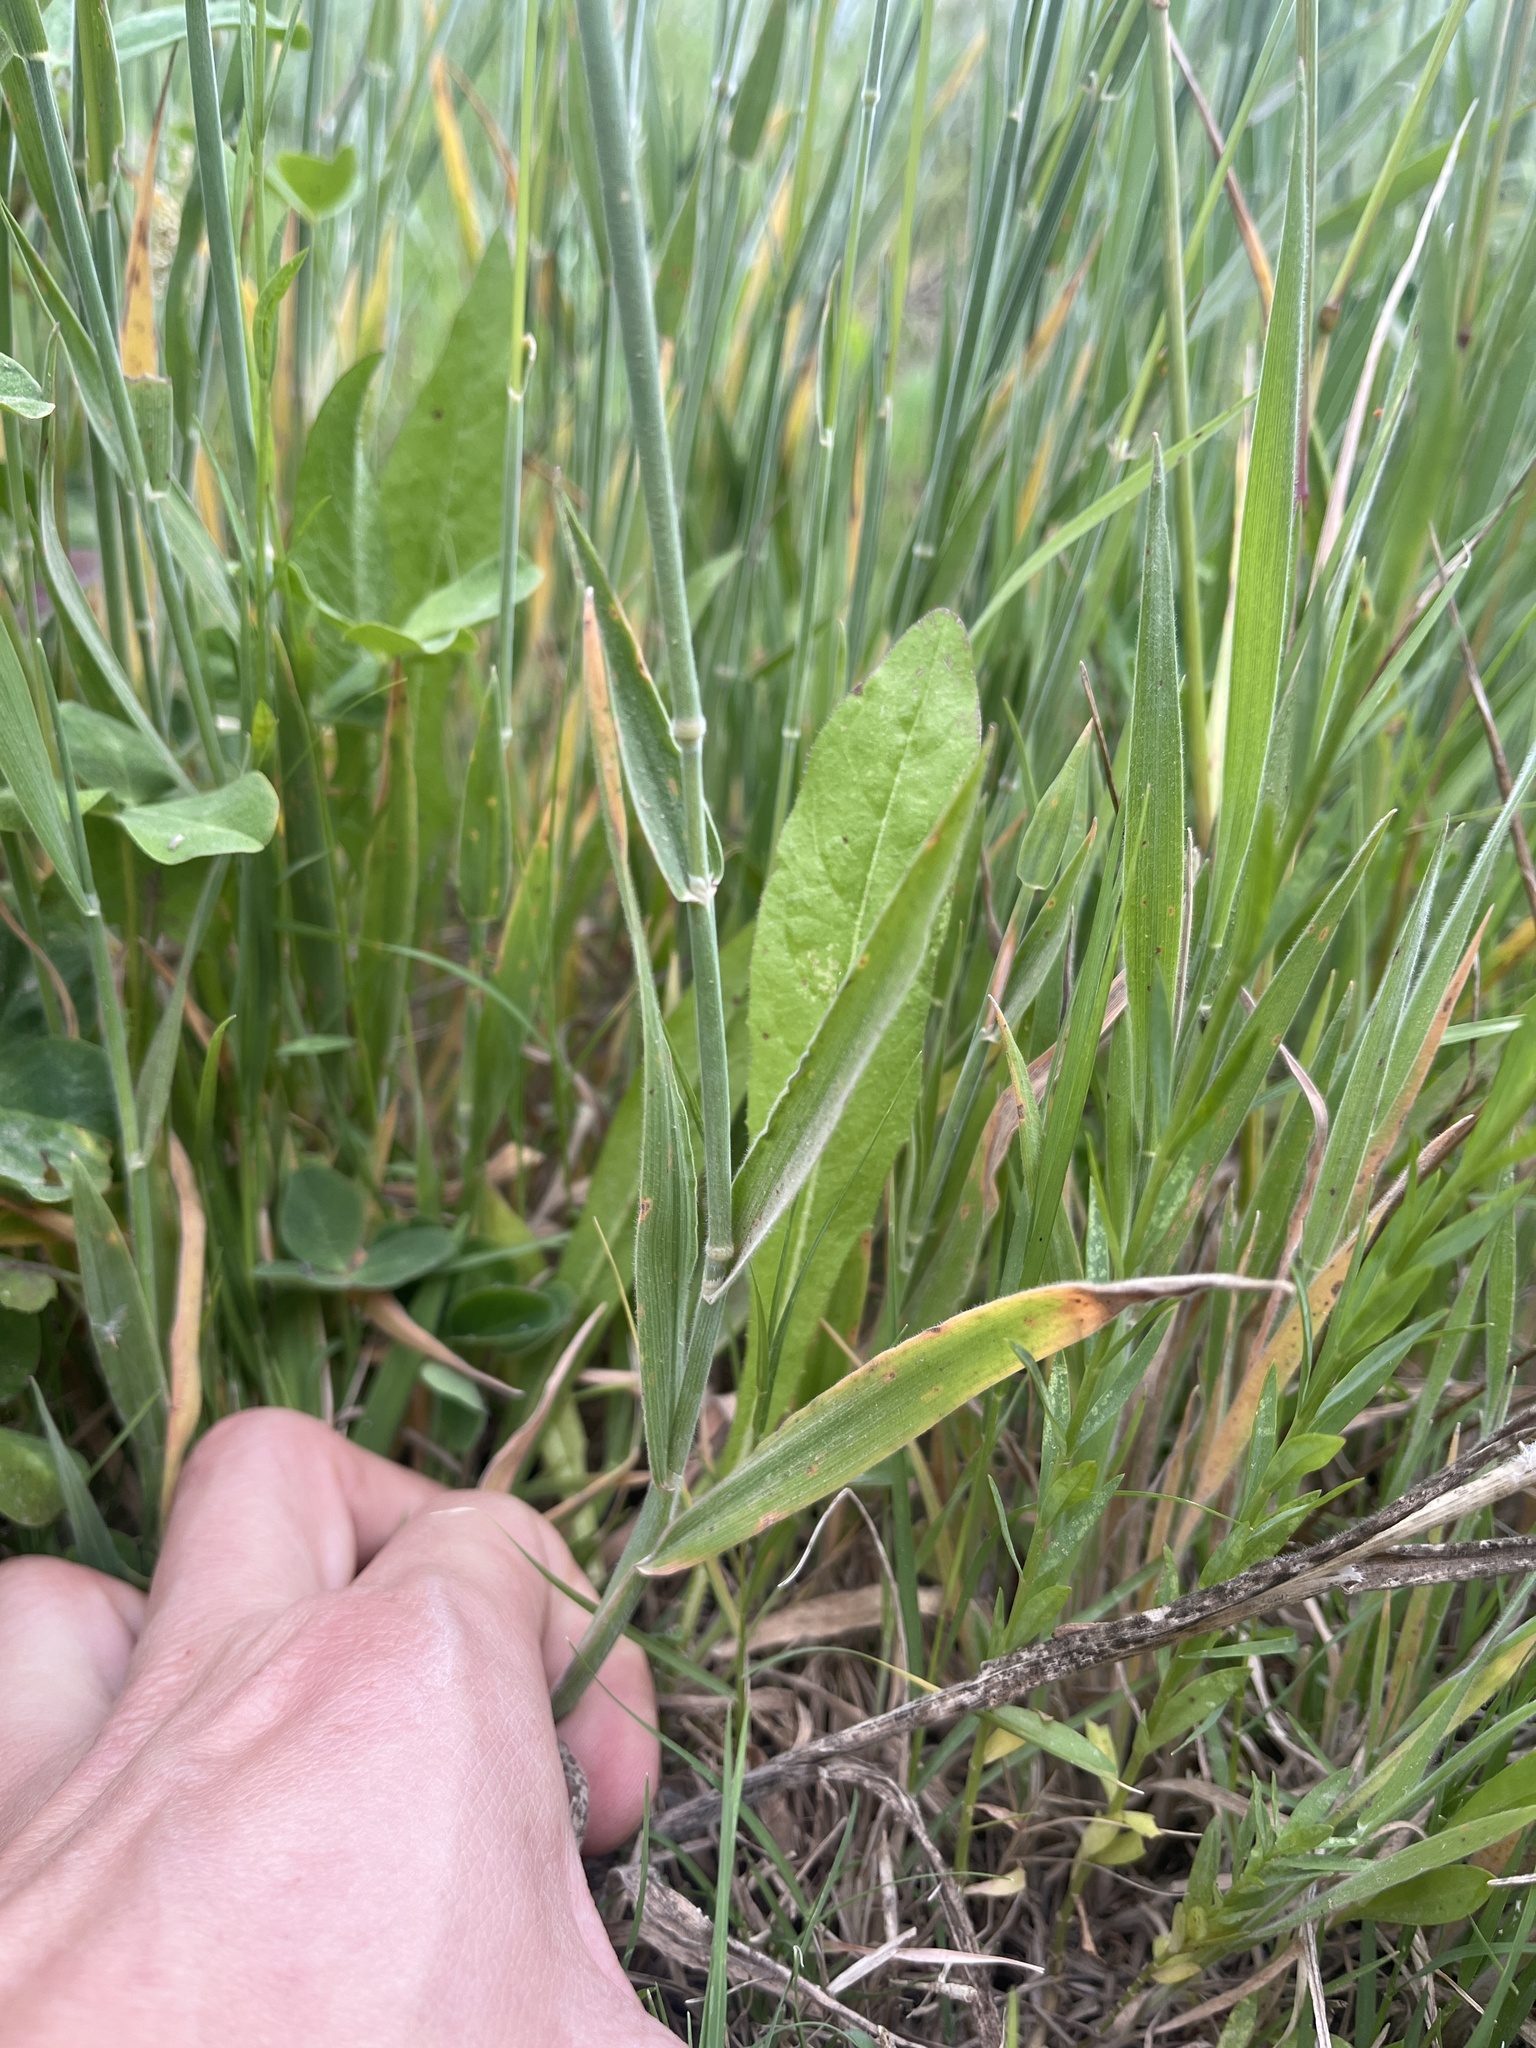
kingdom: Plantae
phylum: Tracheophyta
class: Liliopsida
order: Poales
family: Poaceae
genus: Holcus
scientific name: Holcus lanatus
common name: Yorkshire-fog
